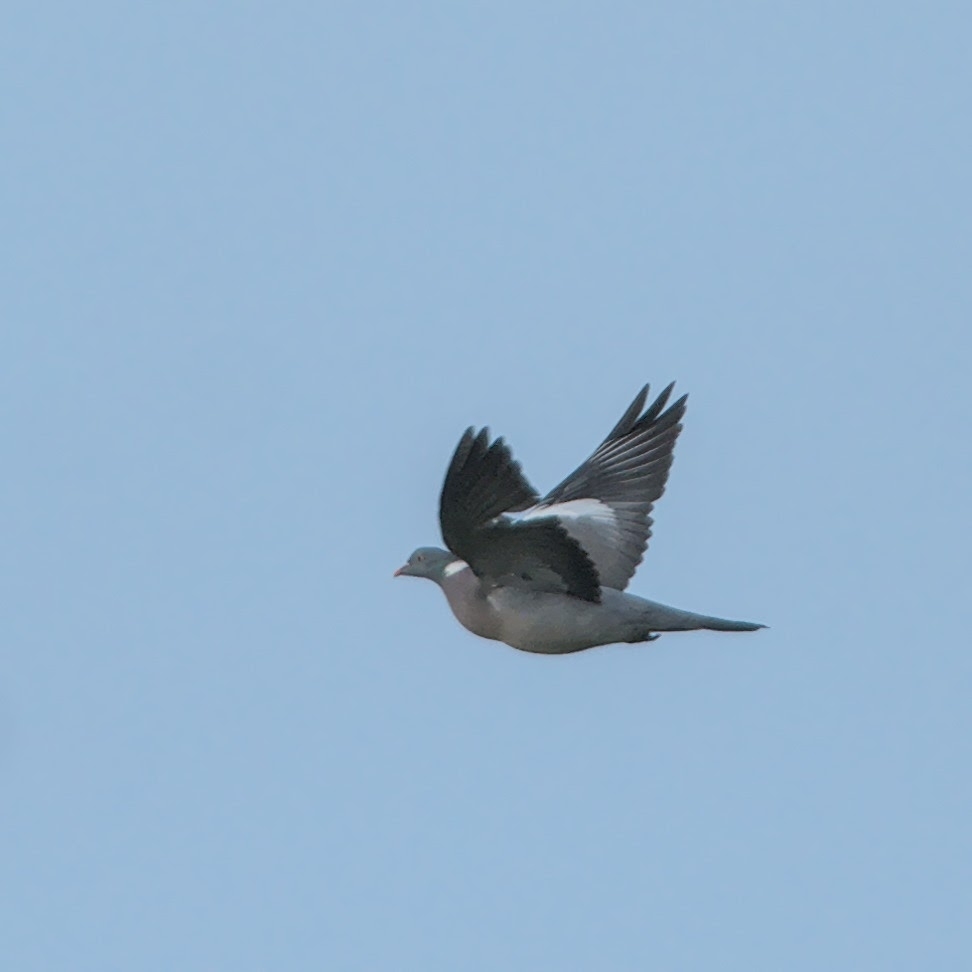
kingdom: Animalia
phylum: Chordata
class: Aves
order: Columbiformes
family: Columbidae
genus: Columba
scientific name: Columba palumbus
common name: Common wood pigeon
